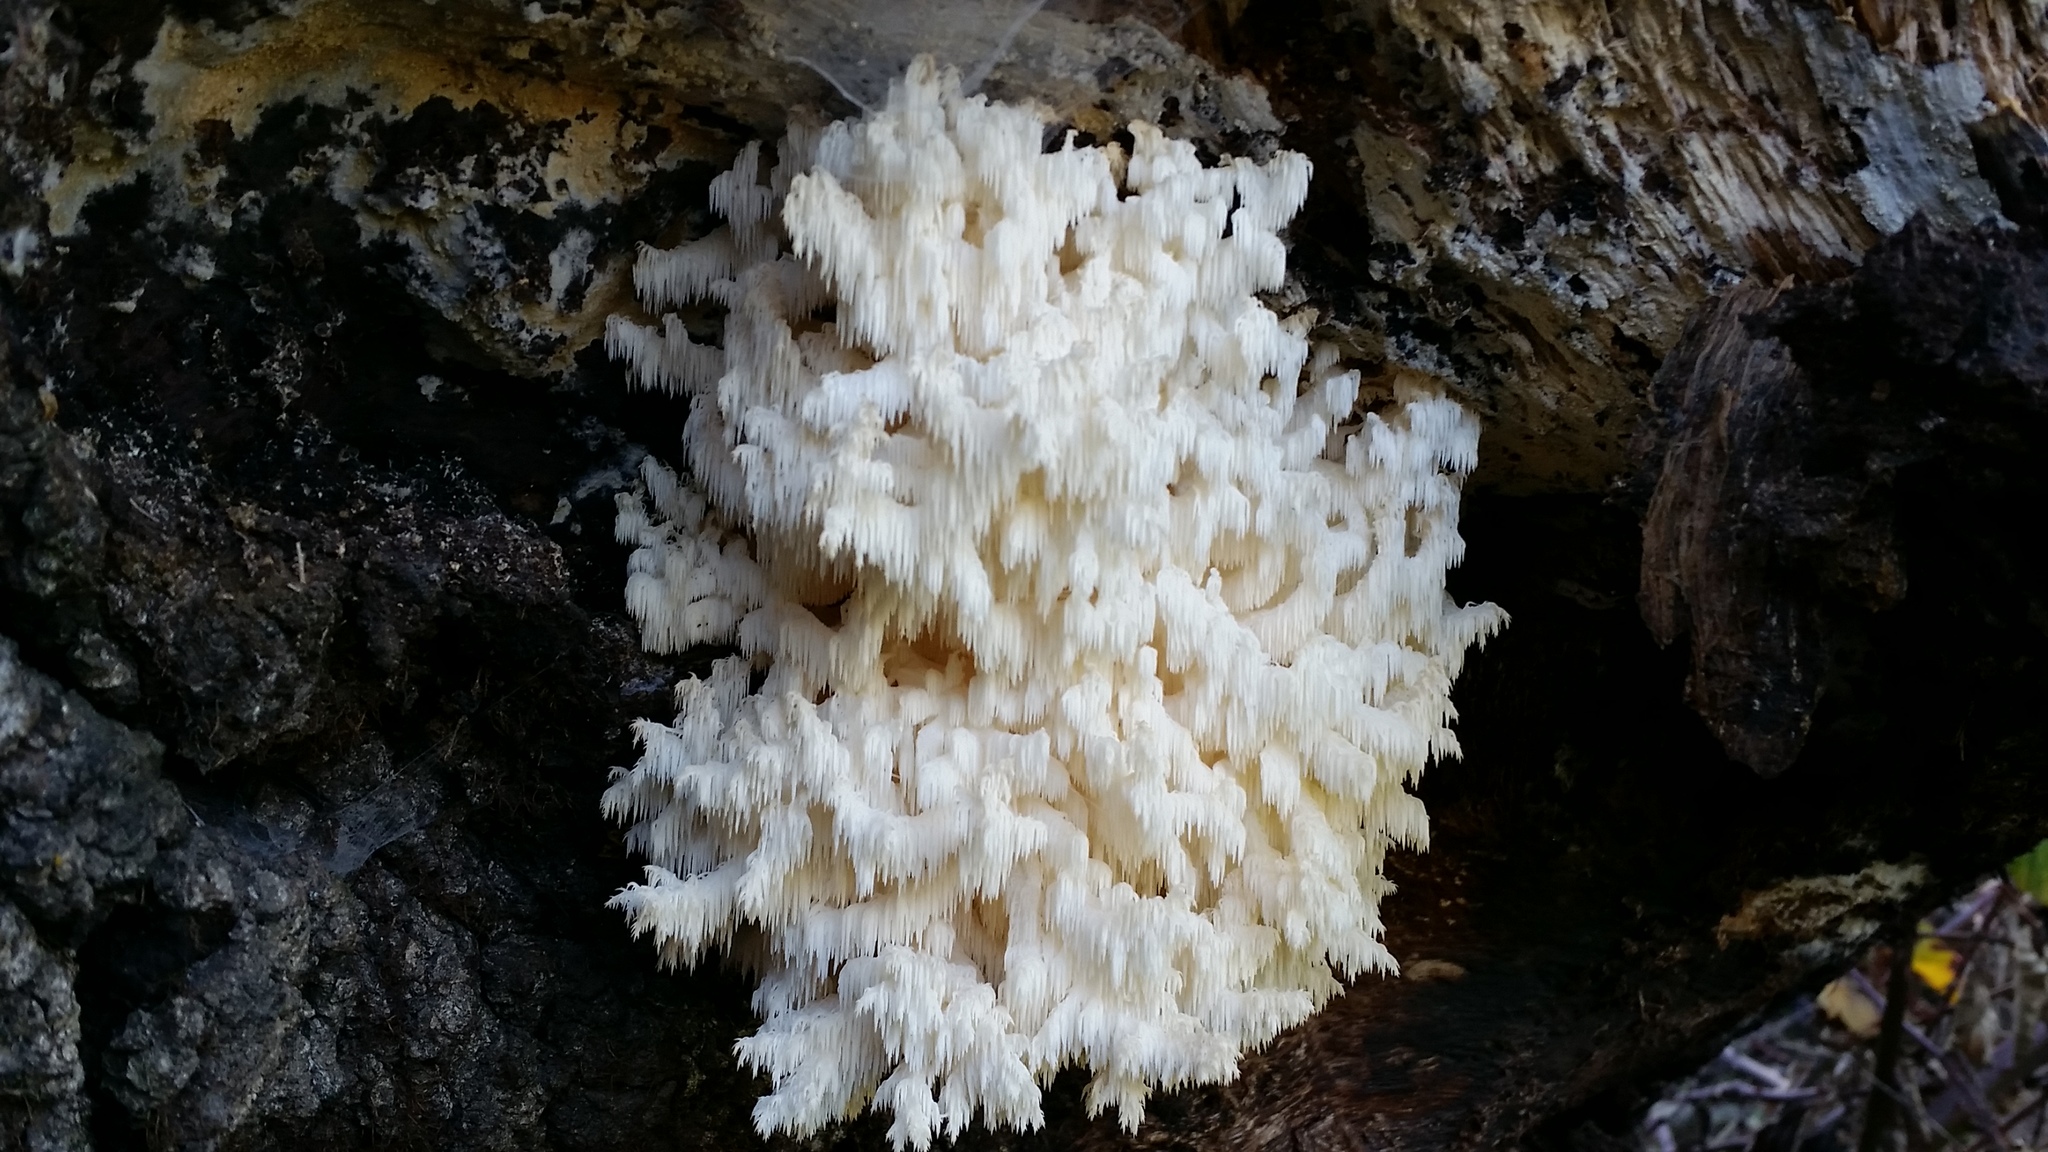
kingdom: Fungi
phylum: Basidiomycota
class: Agaricomycetes
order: Russulales
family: Hericiaceae
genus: Hericium
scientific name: Hericium coralloides
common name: Coral tooth
